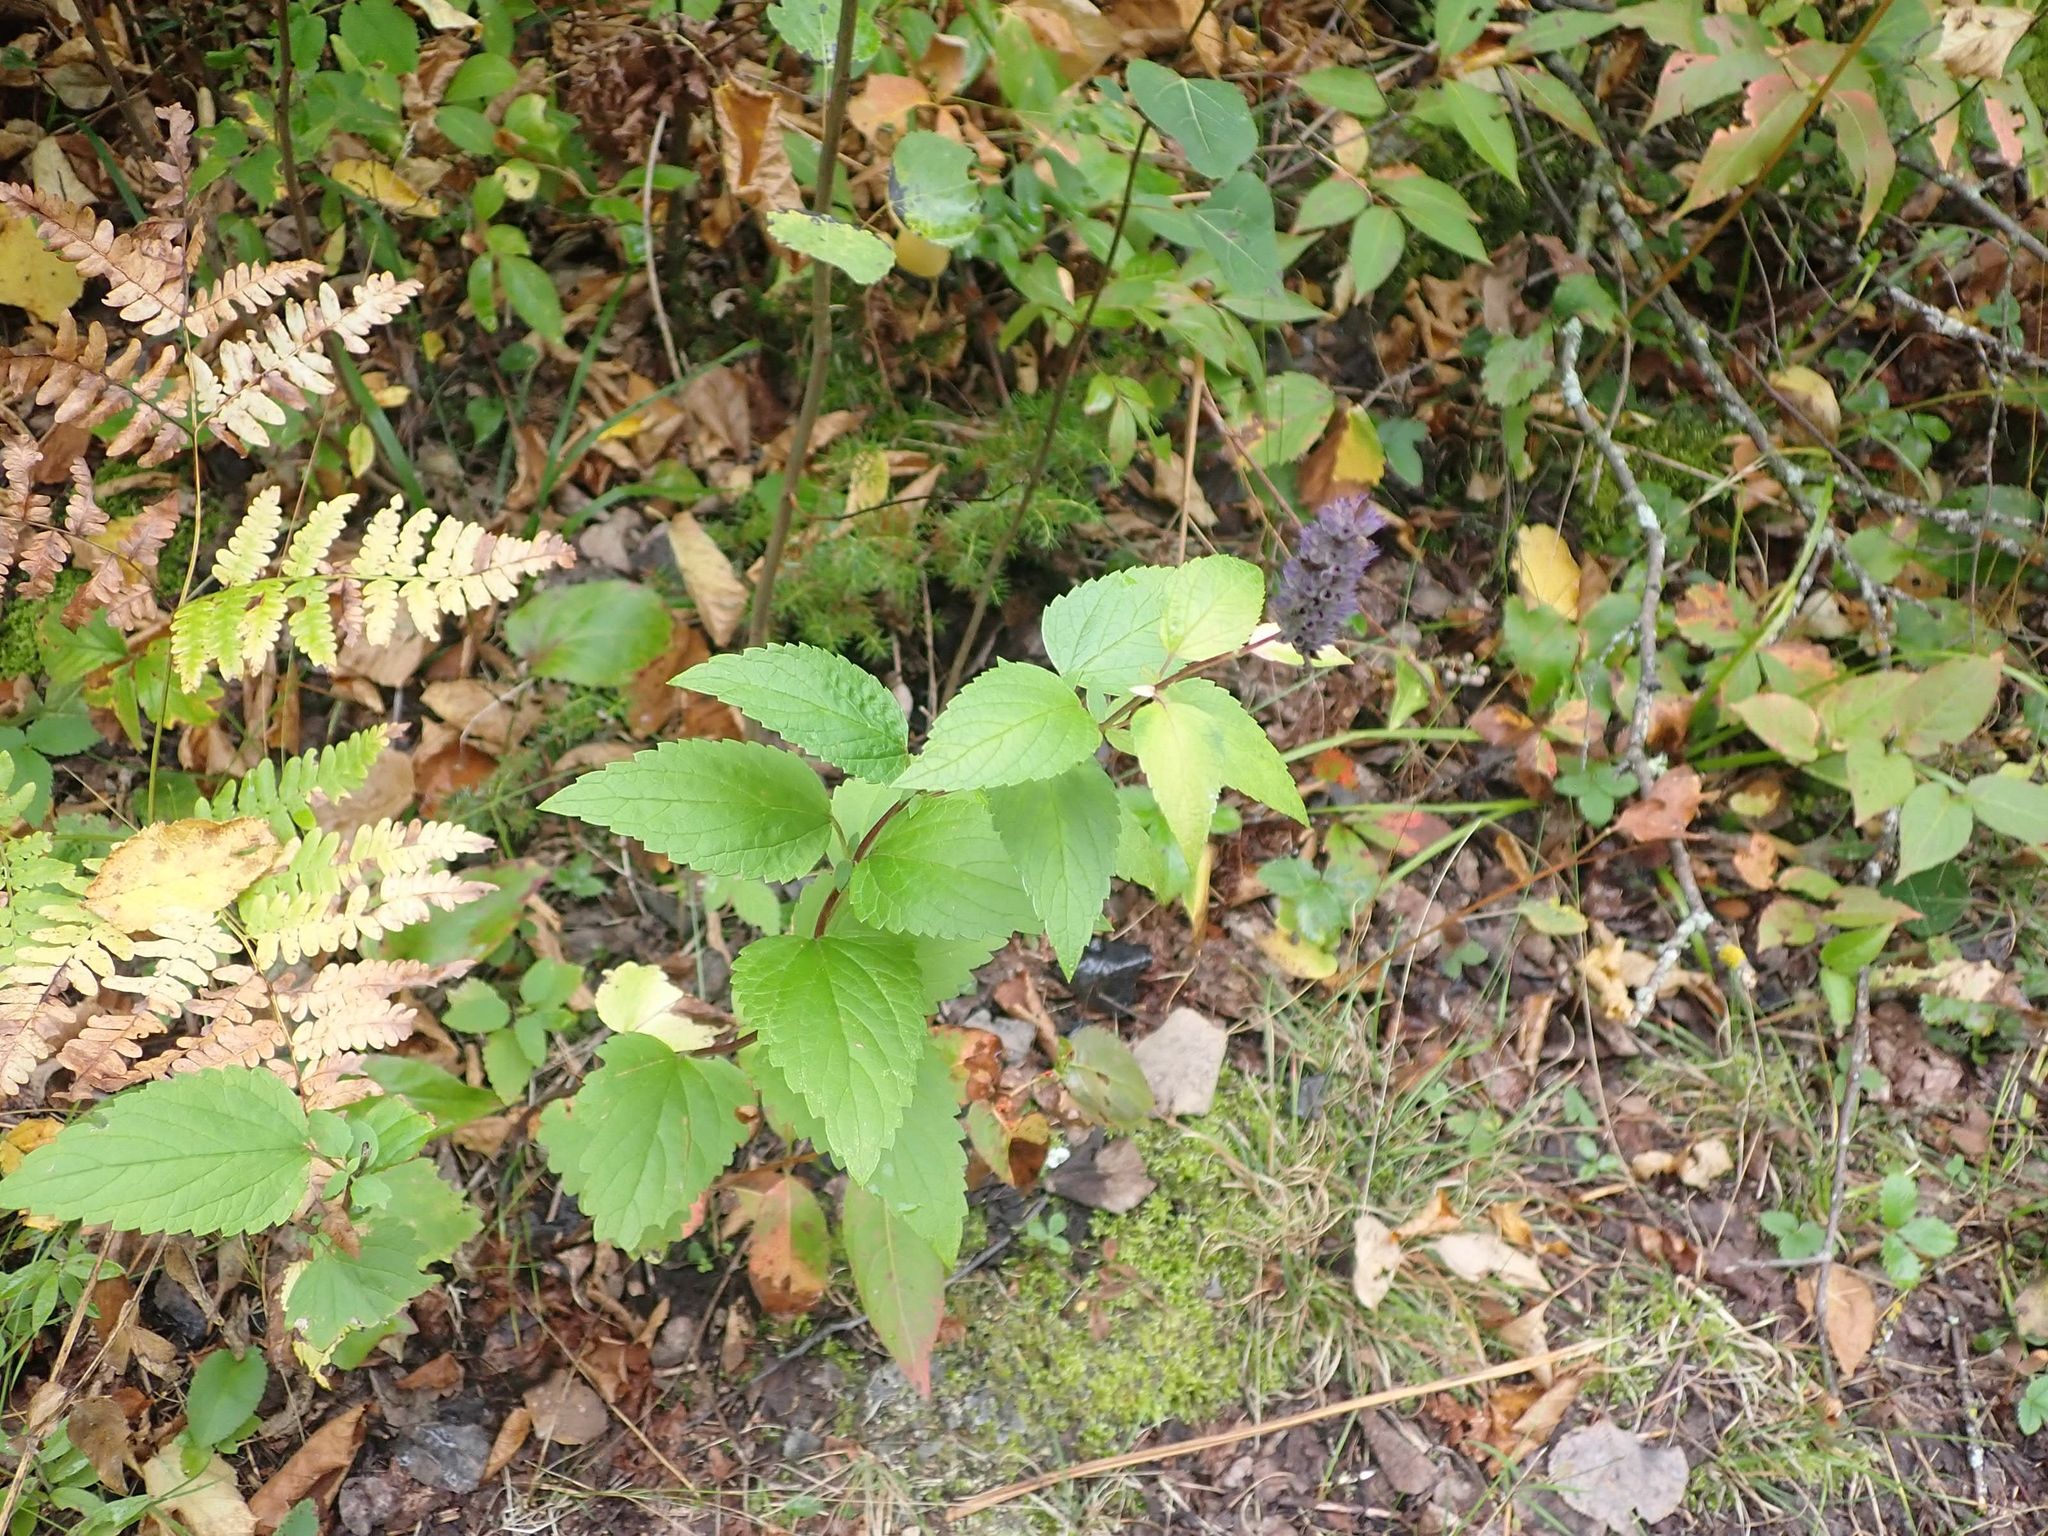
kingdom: Plantae
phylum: Tracheophyta
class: Magnoliopsida
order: Lamiales
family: Lamiaceae
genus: Agastache
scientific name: Agastache foeniculum
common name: Anise hyssop
